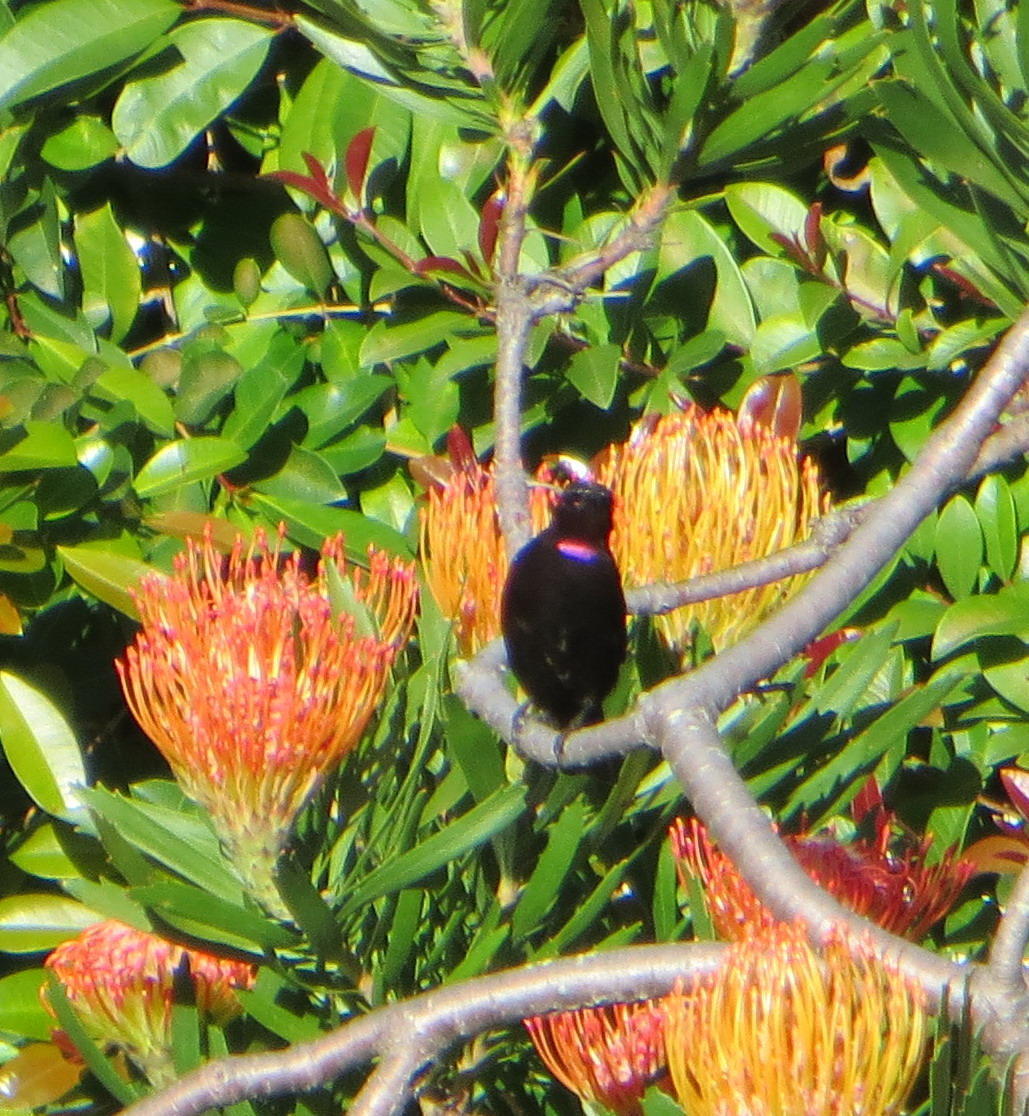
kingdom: Animalia
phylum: Chordata
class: Aves
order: Passeriformes
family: Nectariniidae
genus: Chalcomitra
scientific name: Chalcomitra amethystina
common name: Amethyst sunbird
